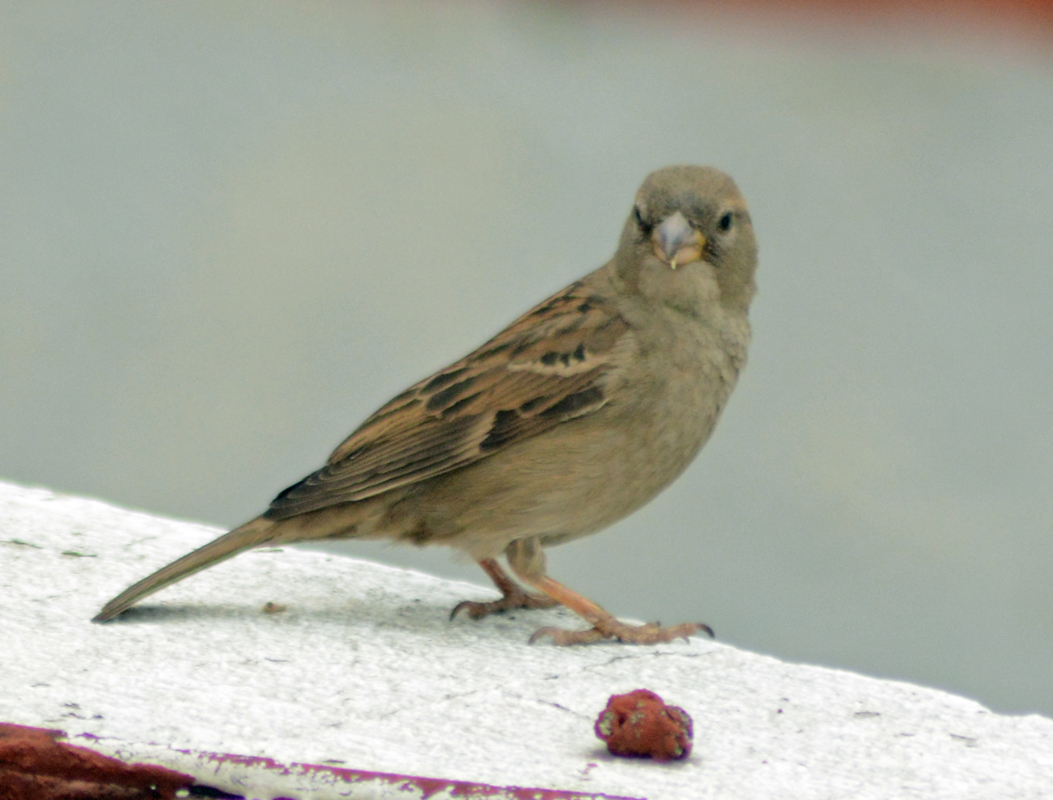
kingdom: Animalia
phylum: Chordata
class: Aves
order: Passeriformes
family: Passeridae
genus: Passer
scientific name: Passer domesticus
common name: House sparrow
